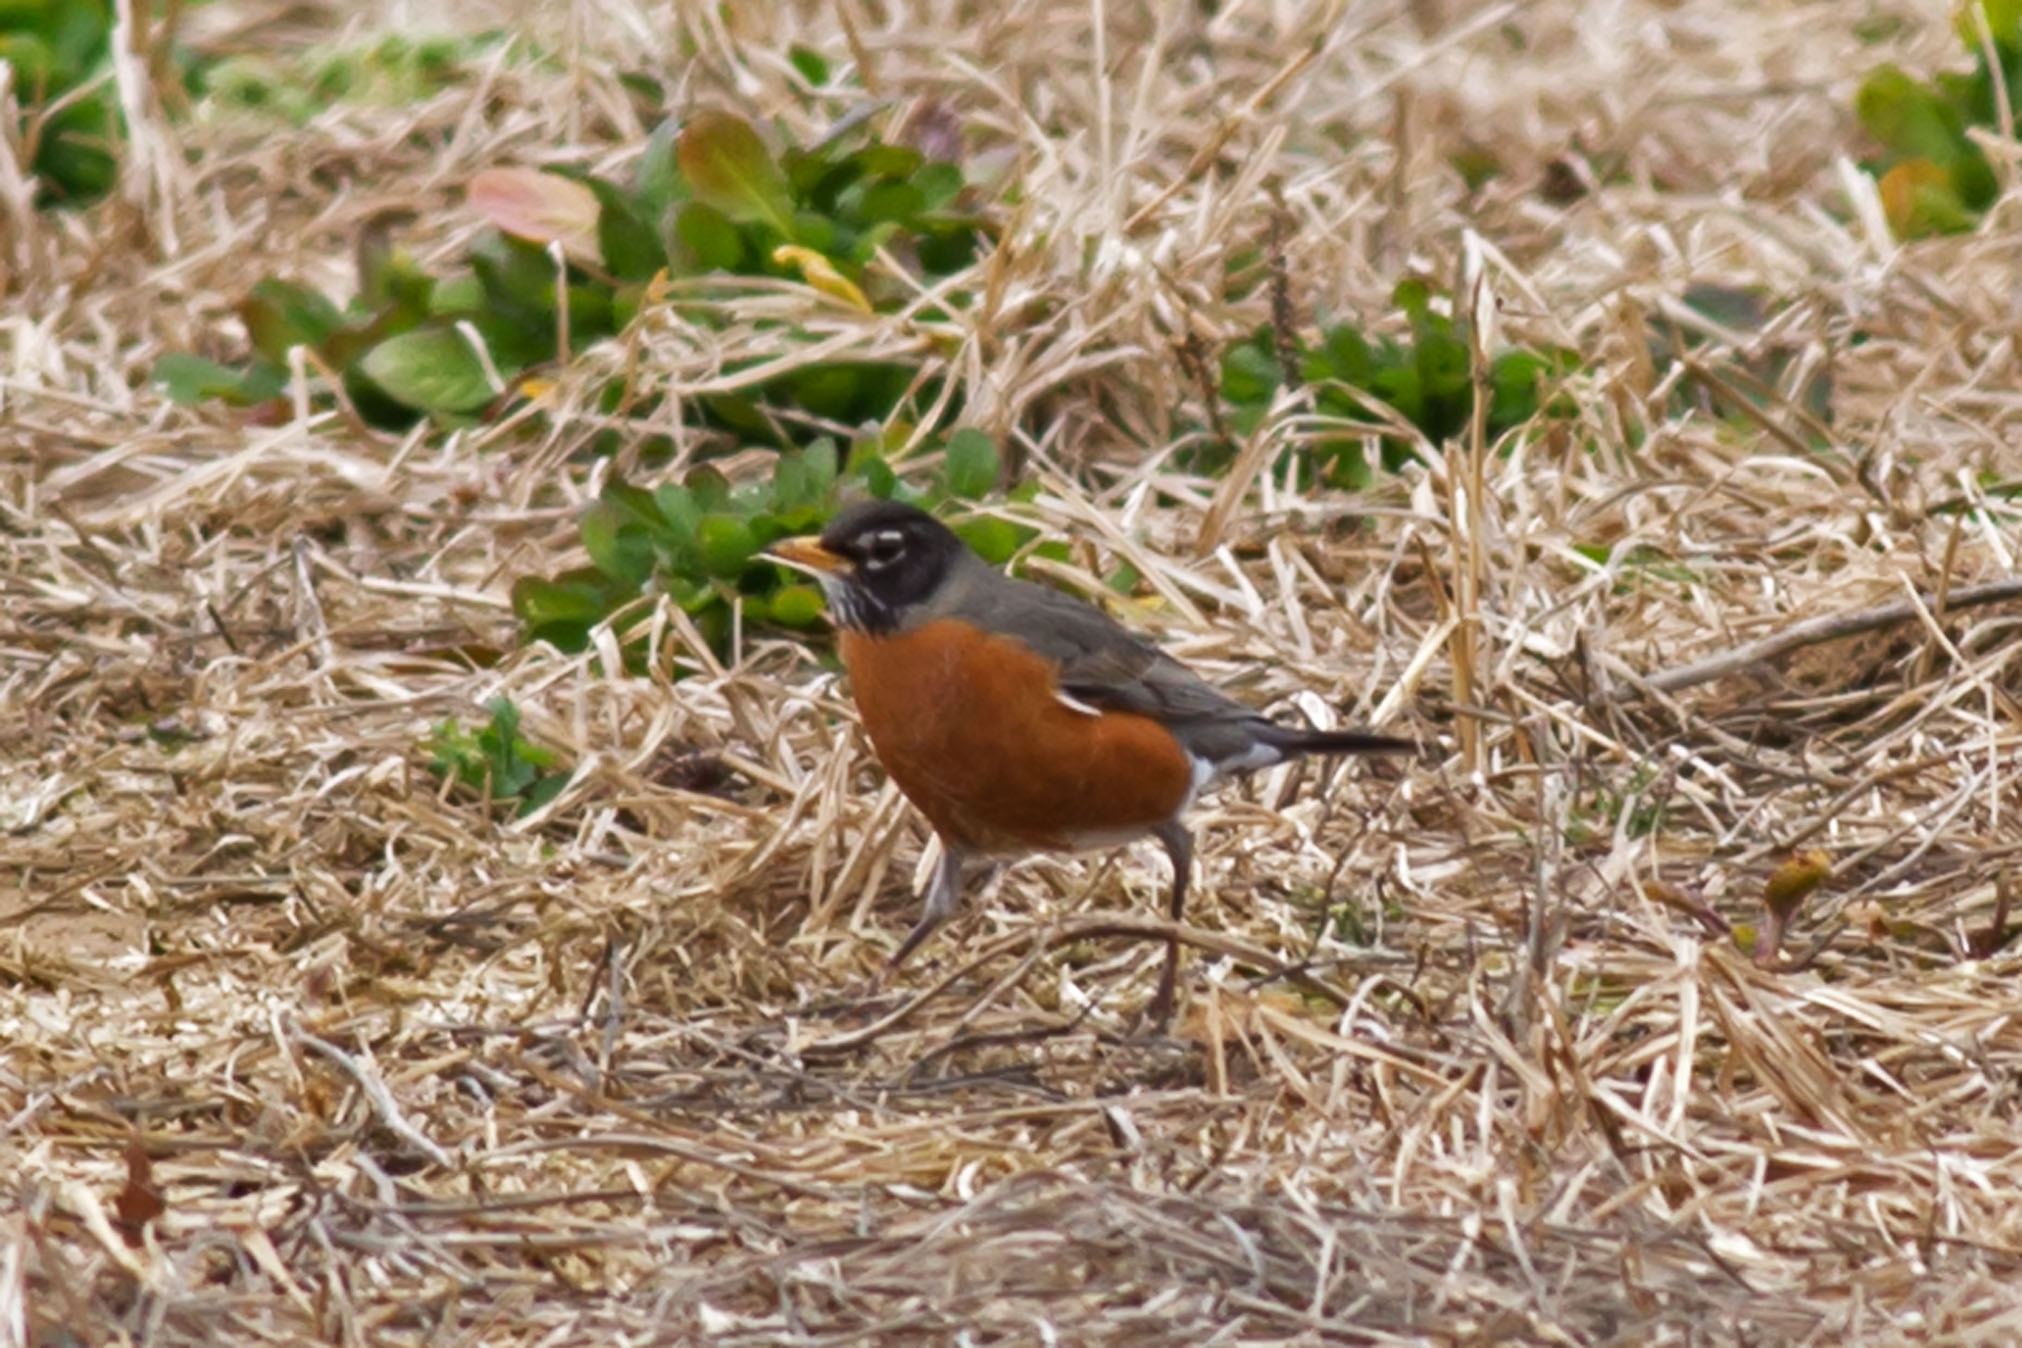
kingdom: Animalia
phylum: Chordata
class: Aves
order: Passeriformes
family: Turdidae
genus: Turdus
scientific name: Turdus migratorius
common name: American robin
